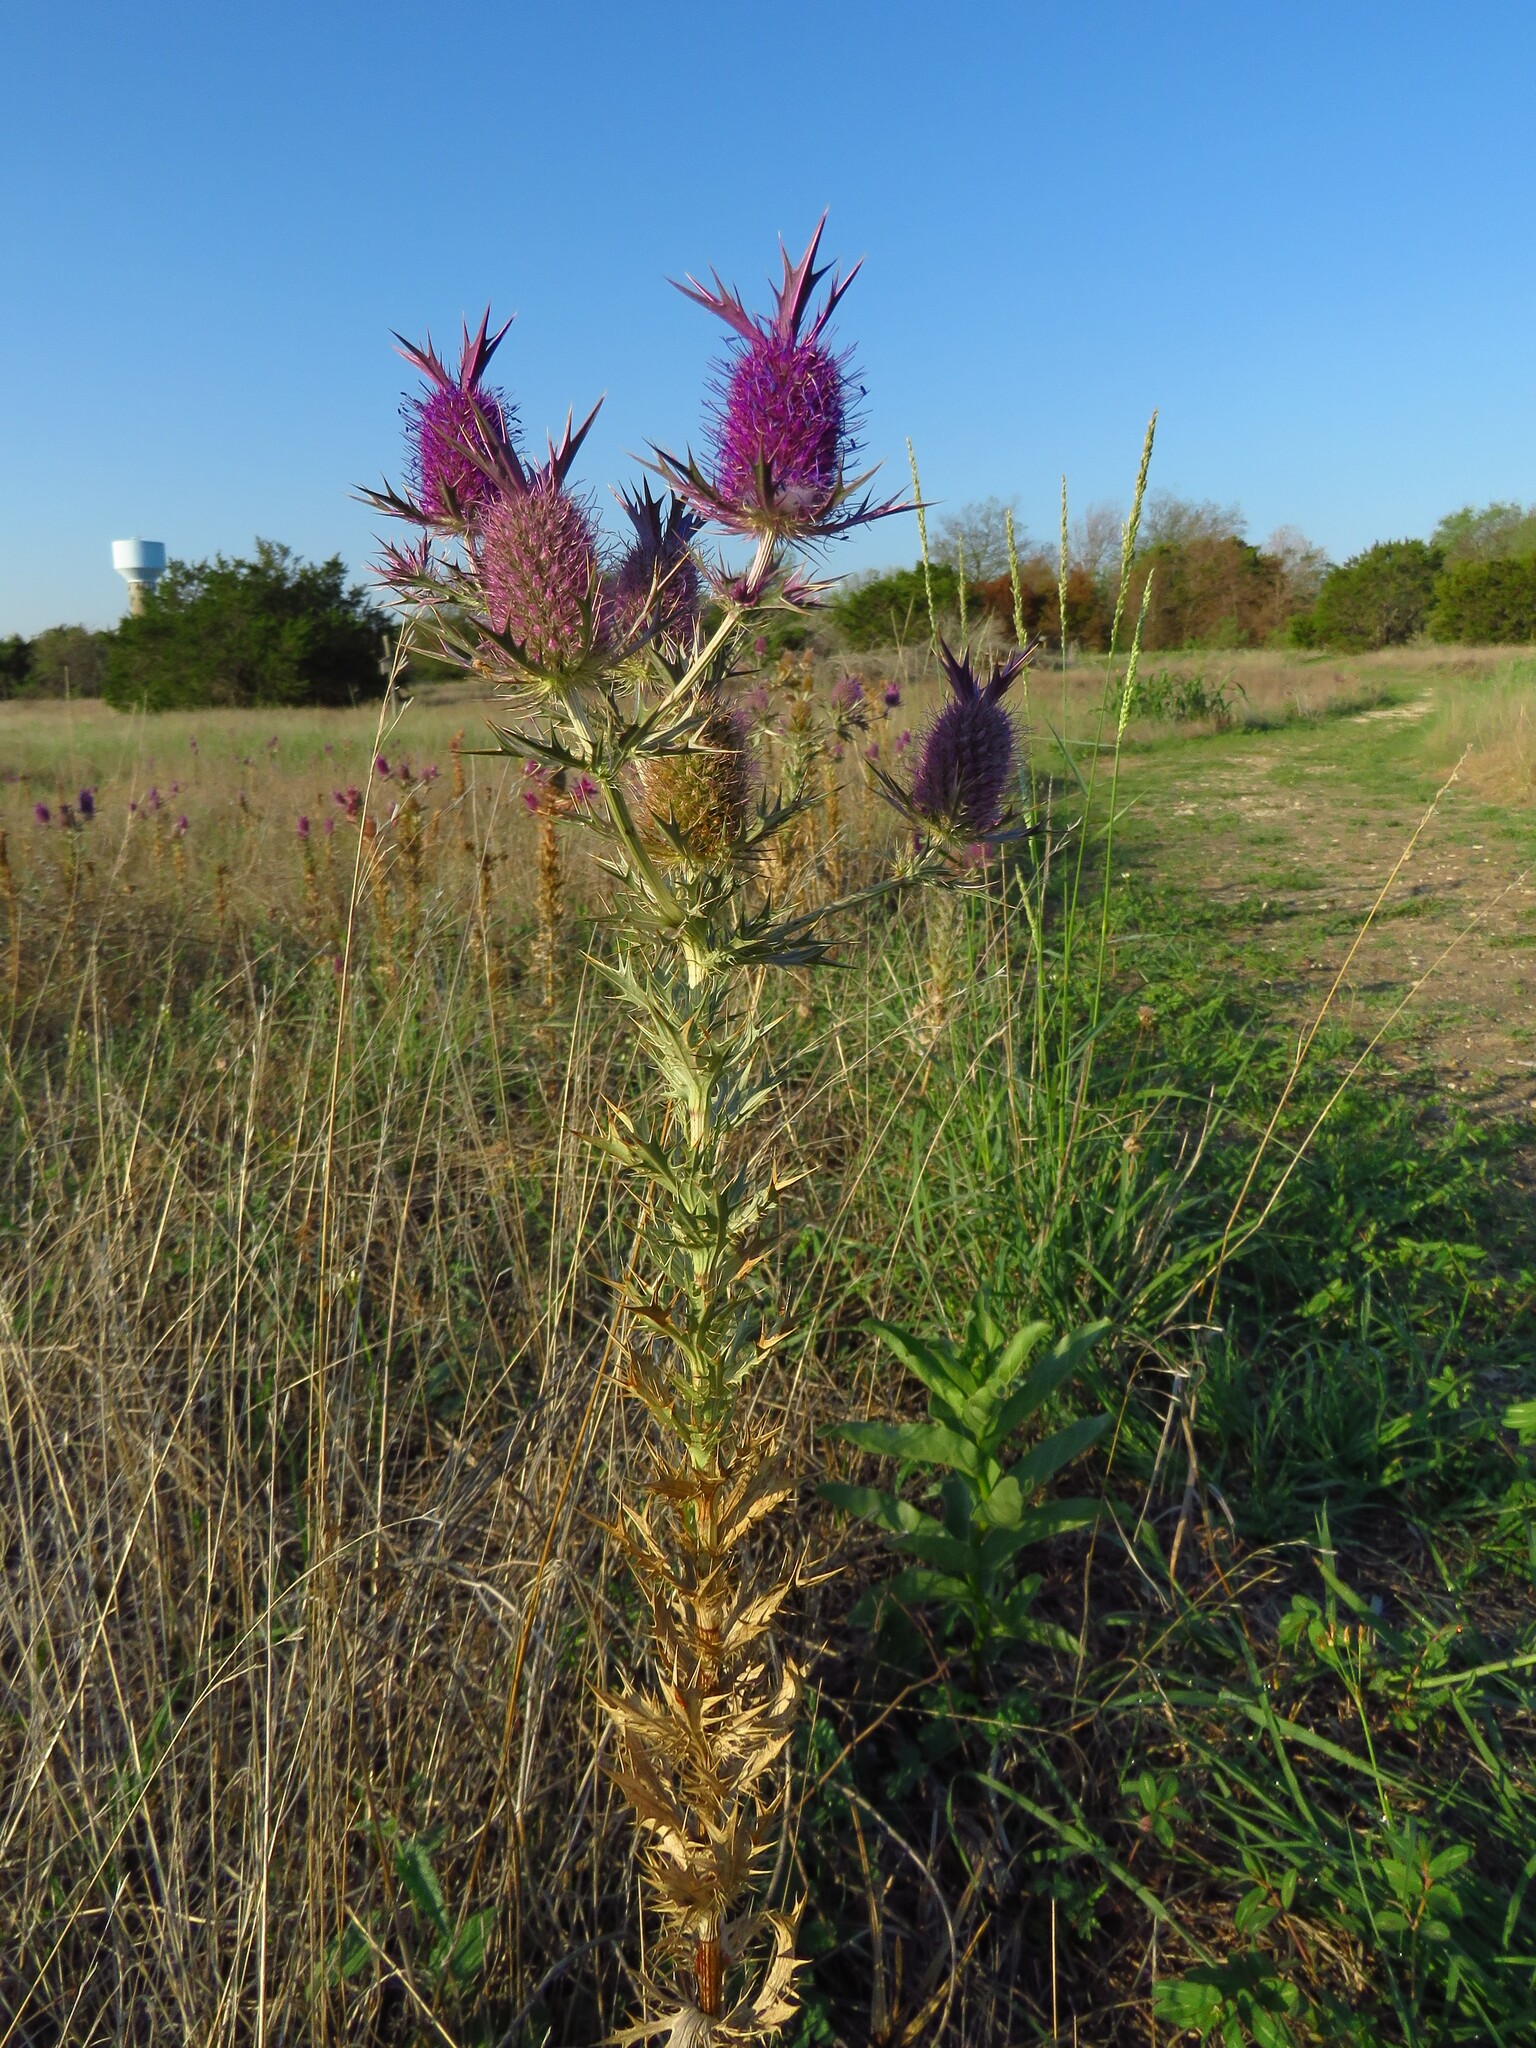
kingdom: Plantae
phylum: Tracheophyta
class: Magnoliopsida
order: Apiales
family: Apiaceae
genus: Eryngium
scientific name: Eryngium leavenworthii
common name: Leavenworth's eryngo
